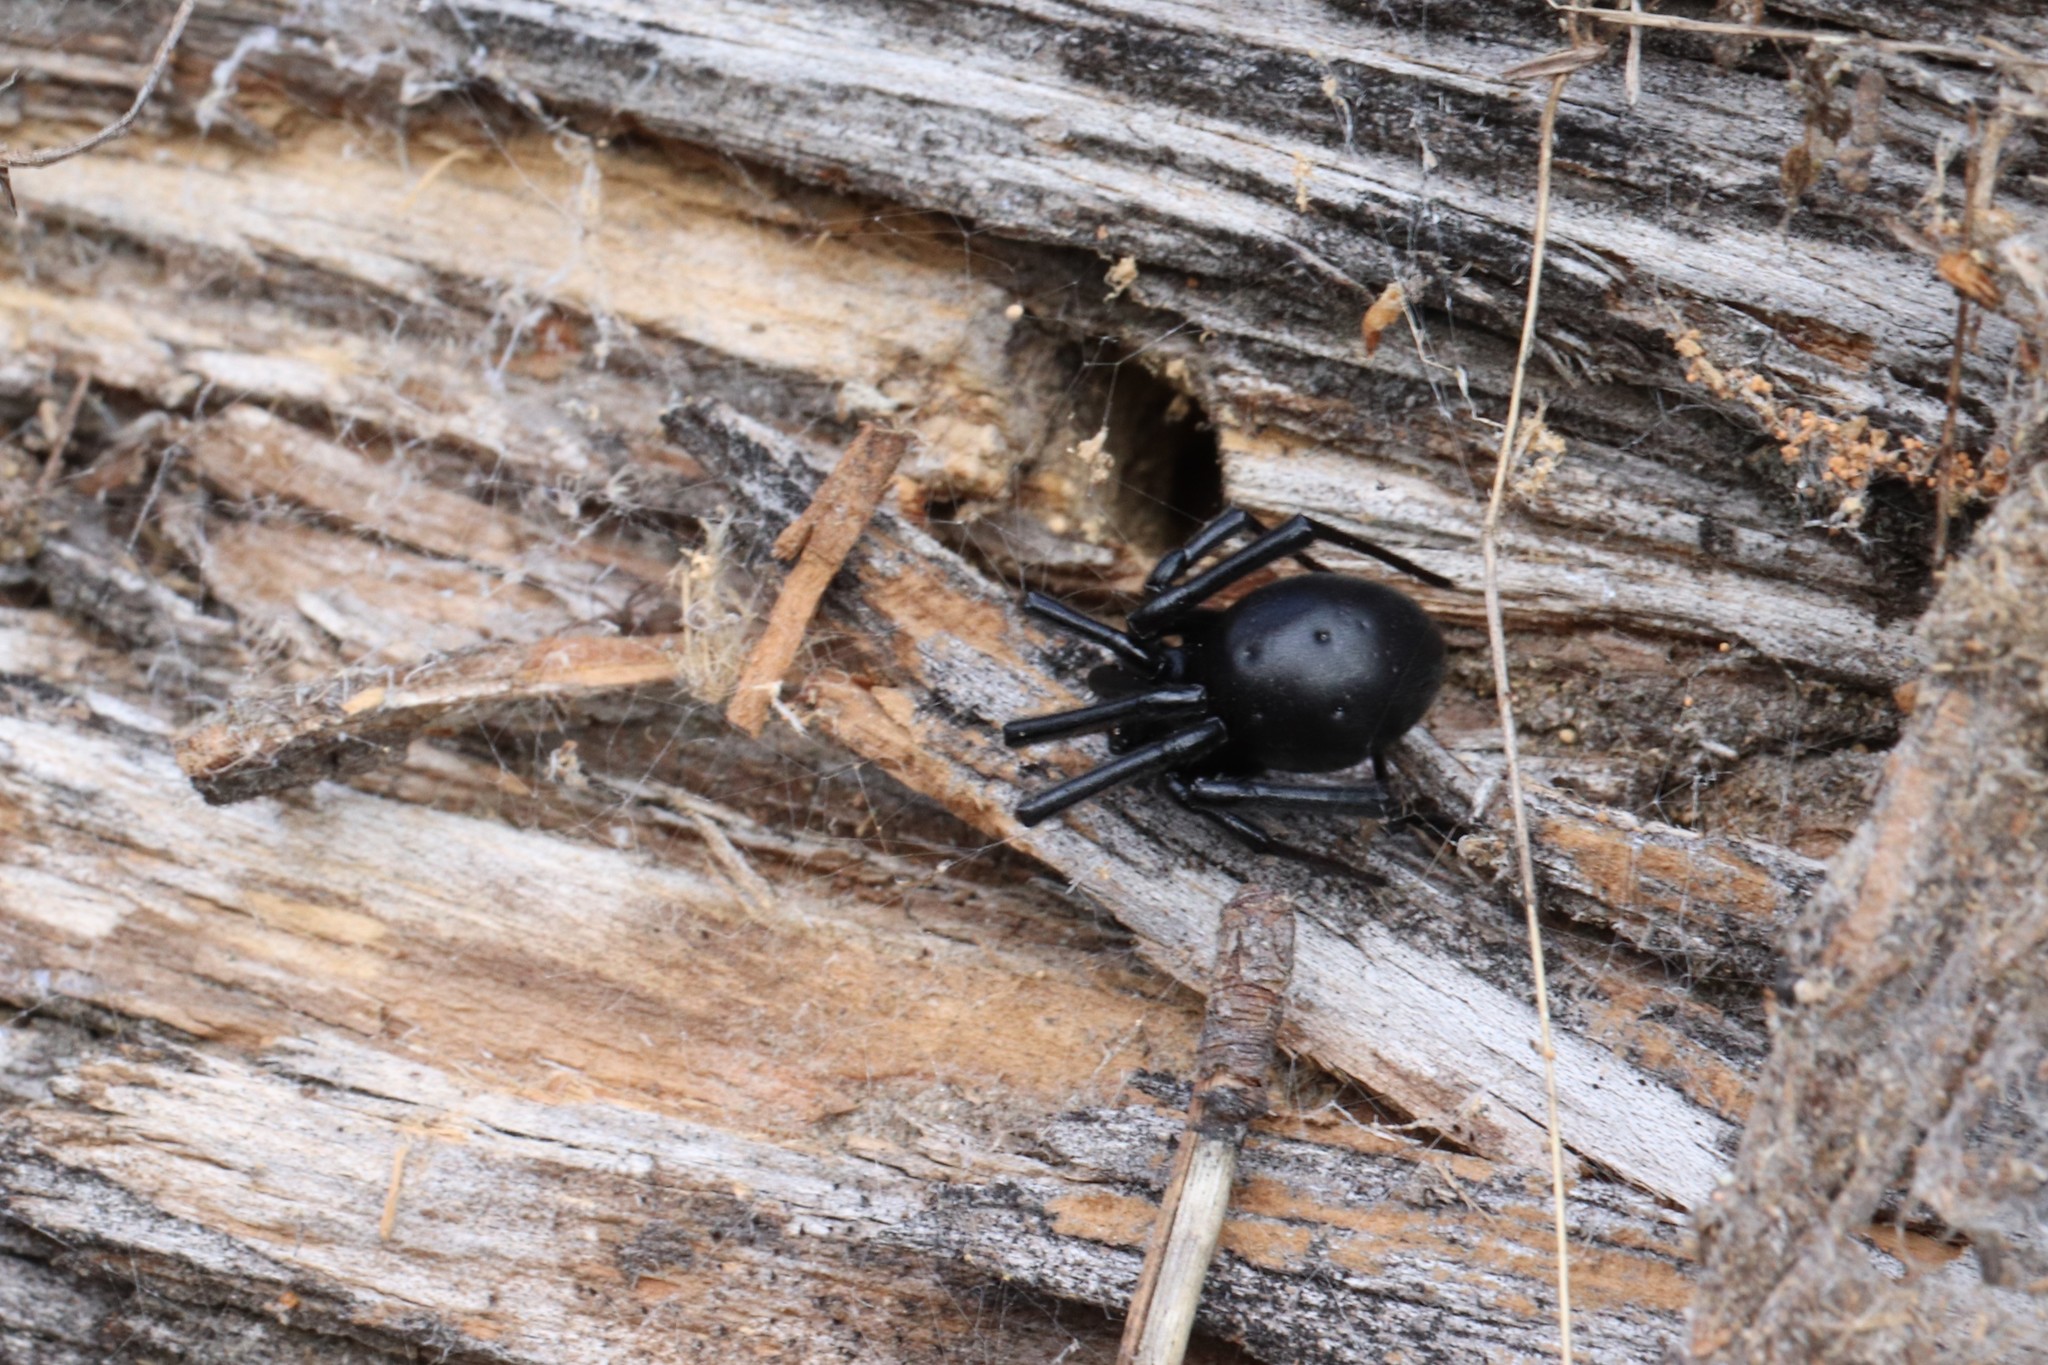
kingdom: Animalia
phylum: Arthropoda
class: Arachnida
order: Araneae
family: Theridiidae
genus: Latrodectus
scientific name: Latrodectus hesperus
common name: Western black widow
